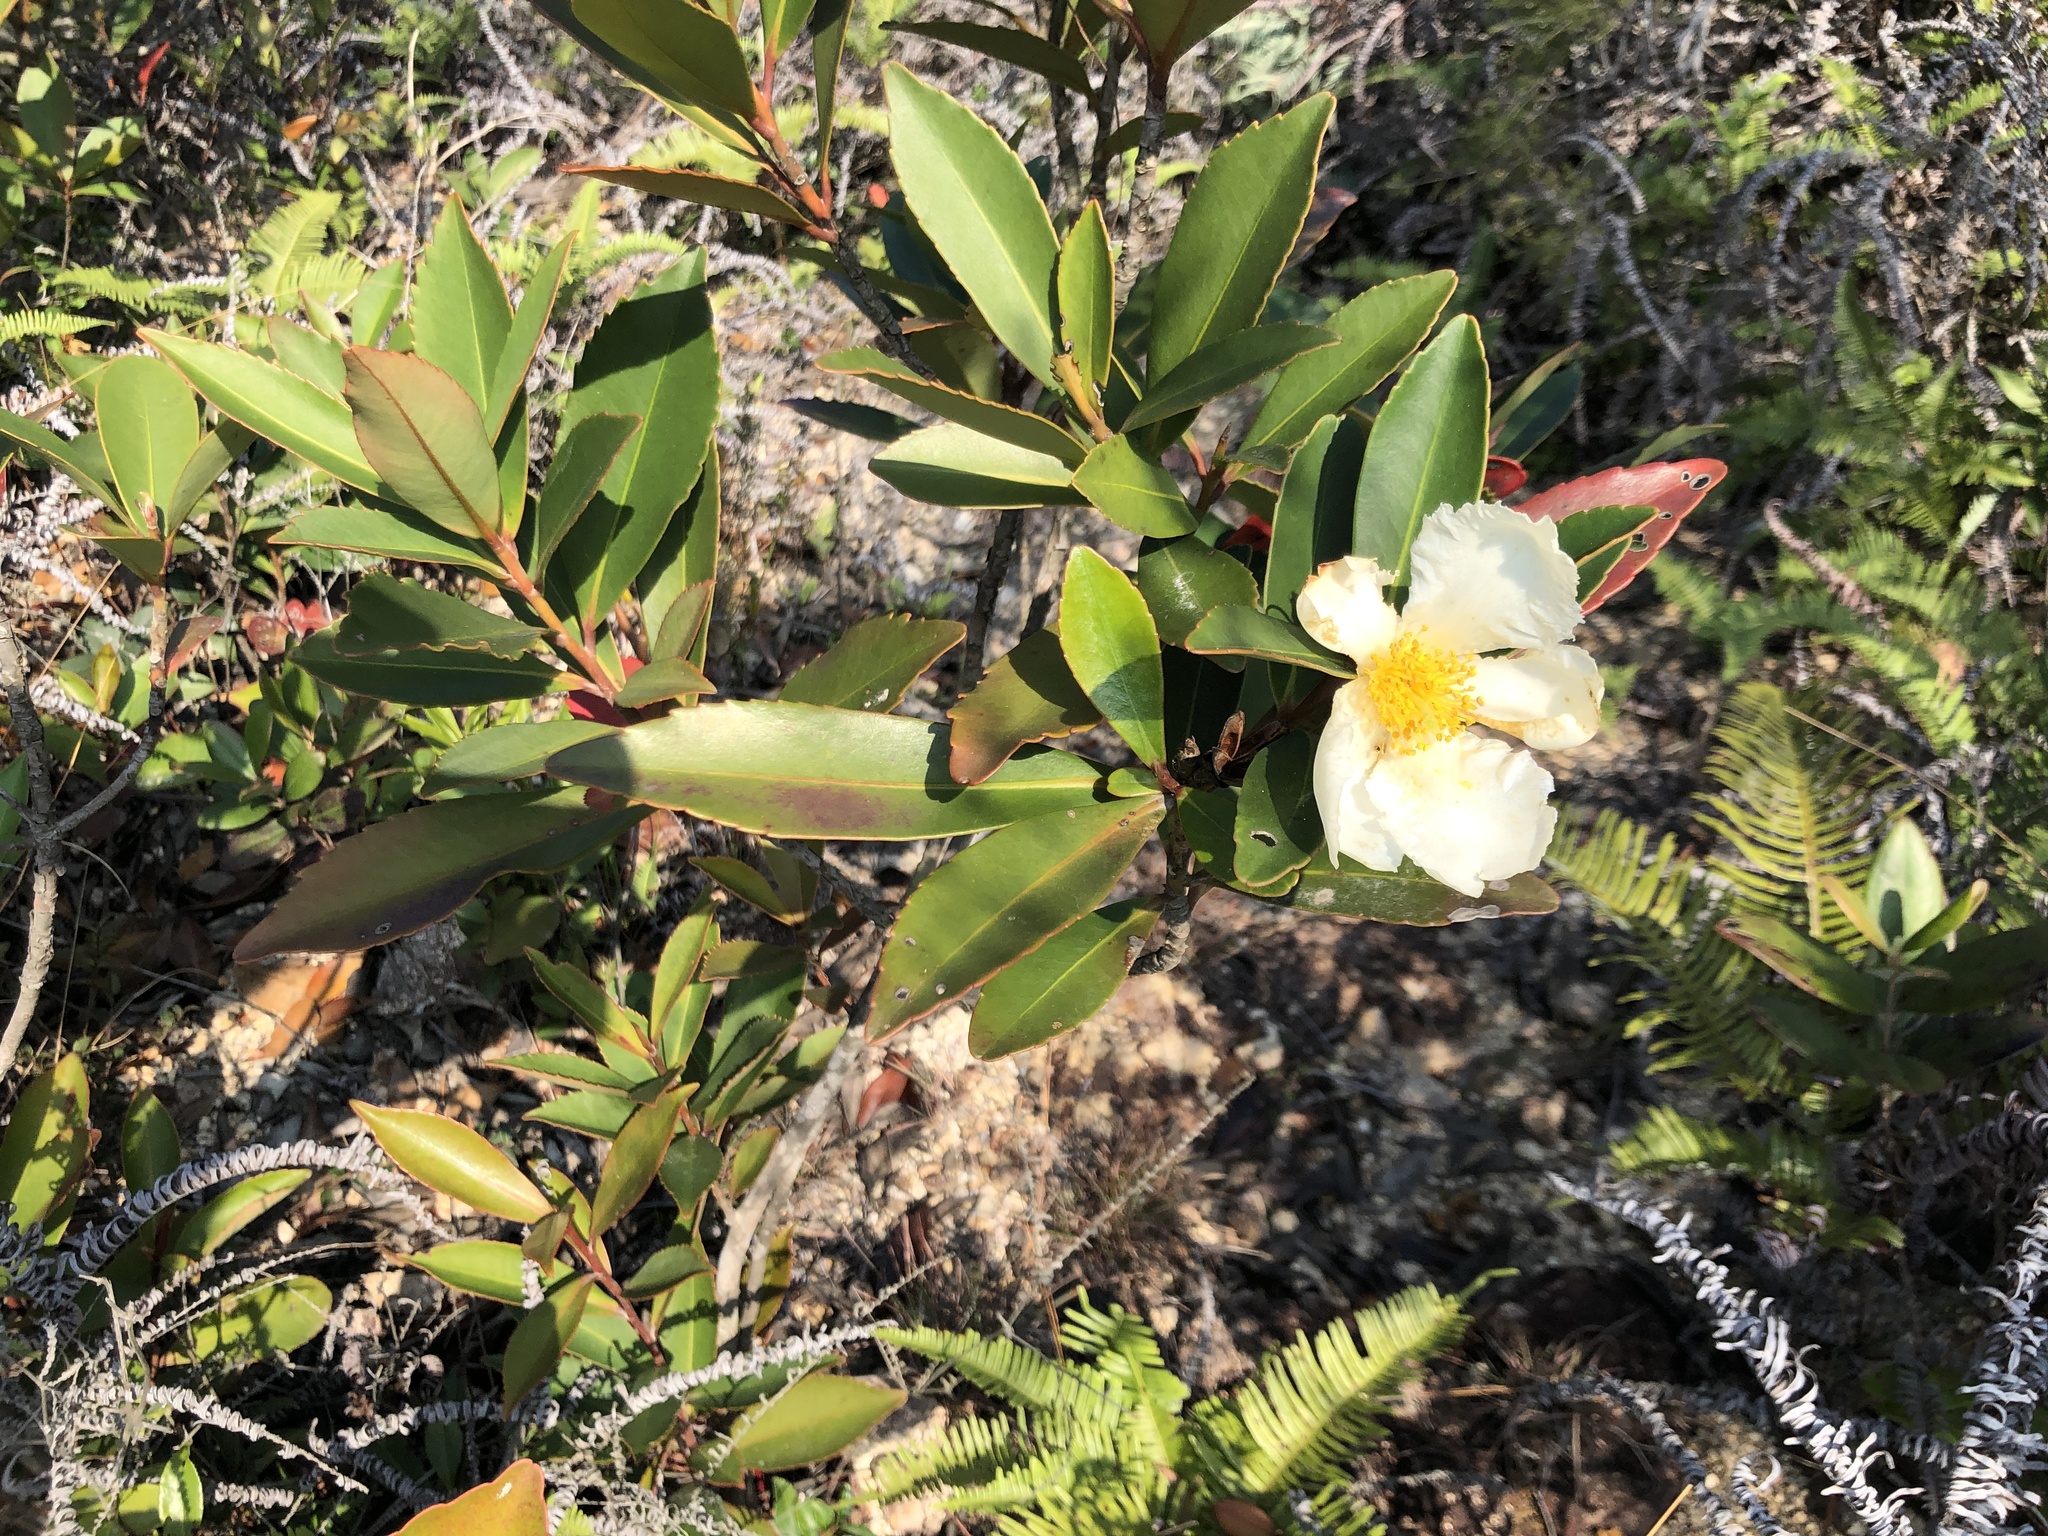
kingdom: Plantae
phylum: Tracheophyta
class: Magnoliopsida
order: Ericales
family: Theaceae
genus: Polyspora
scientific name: Polyspora axillaris
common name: Fried egg tree
